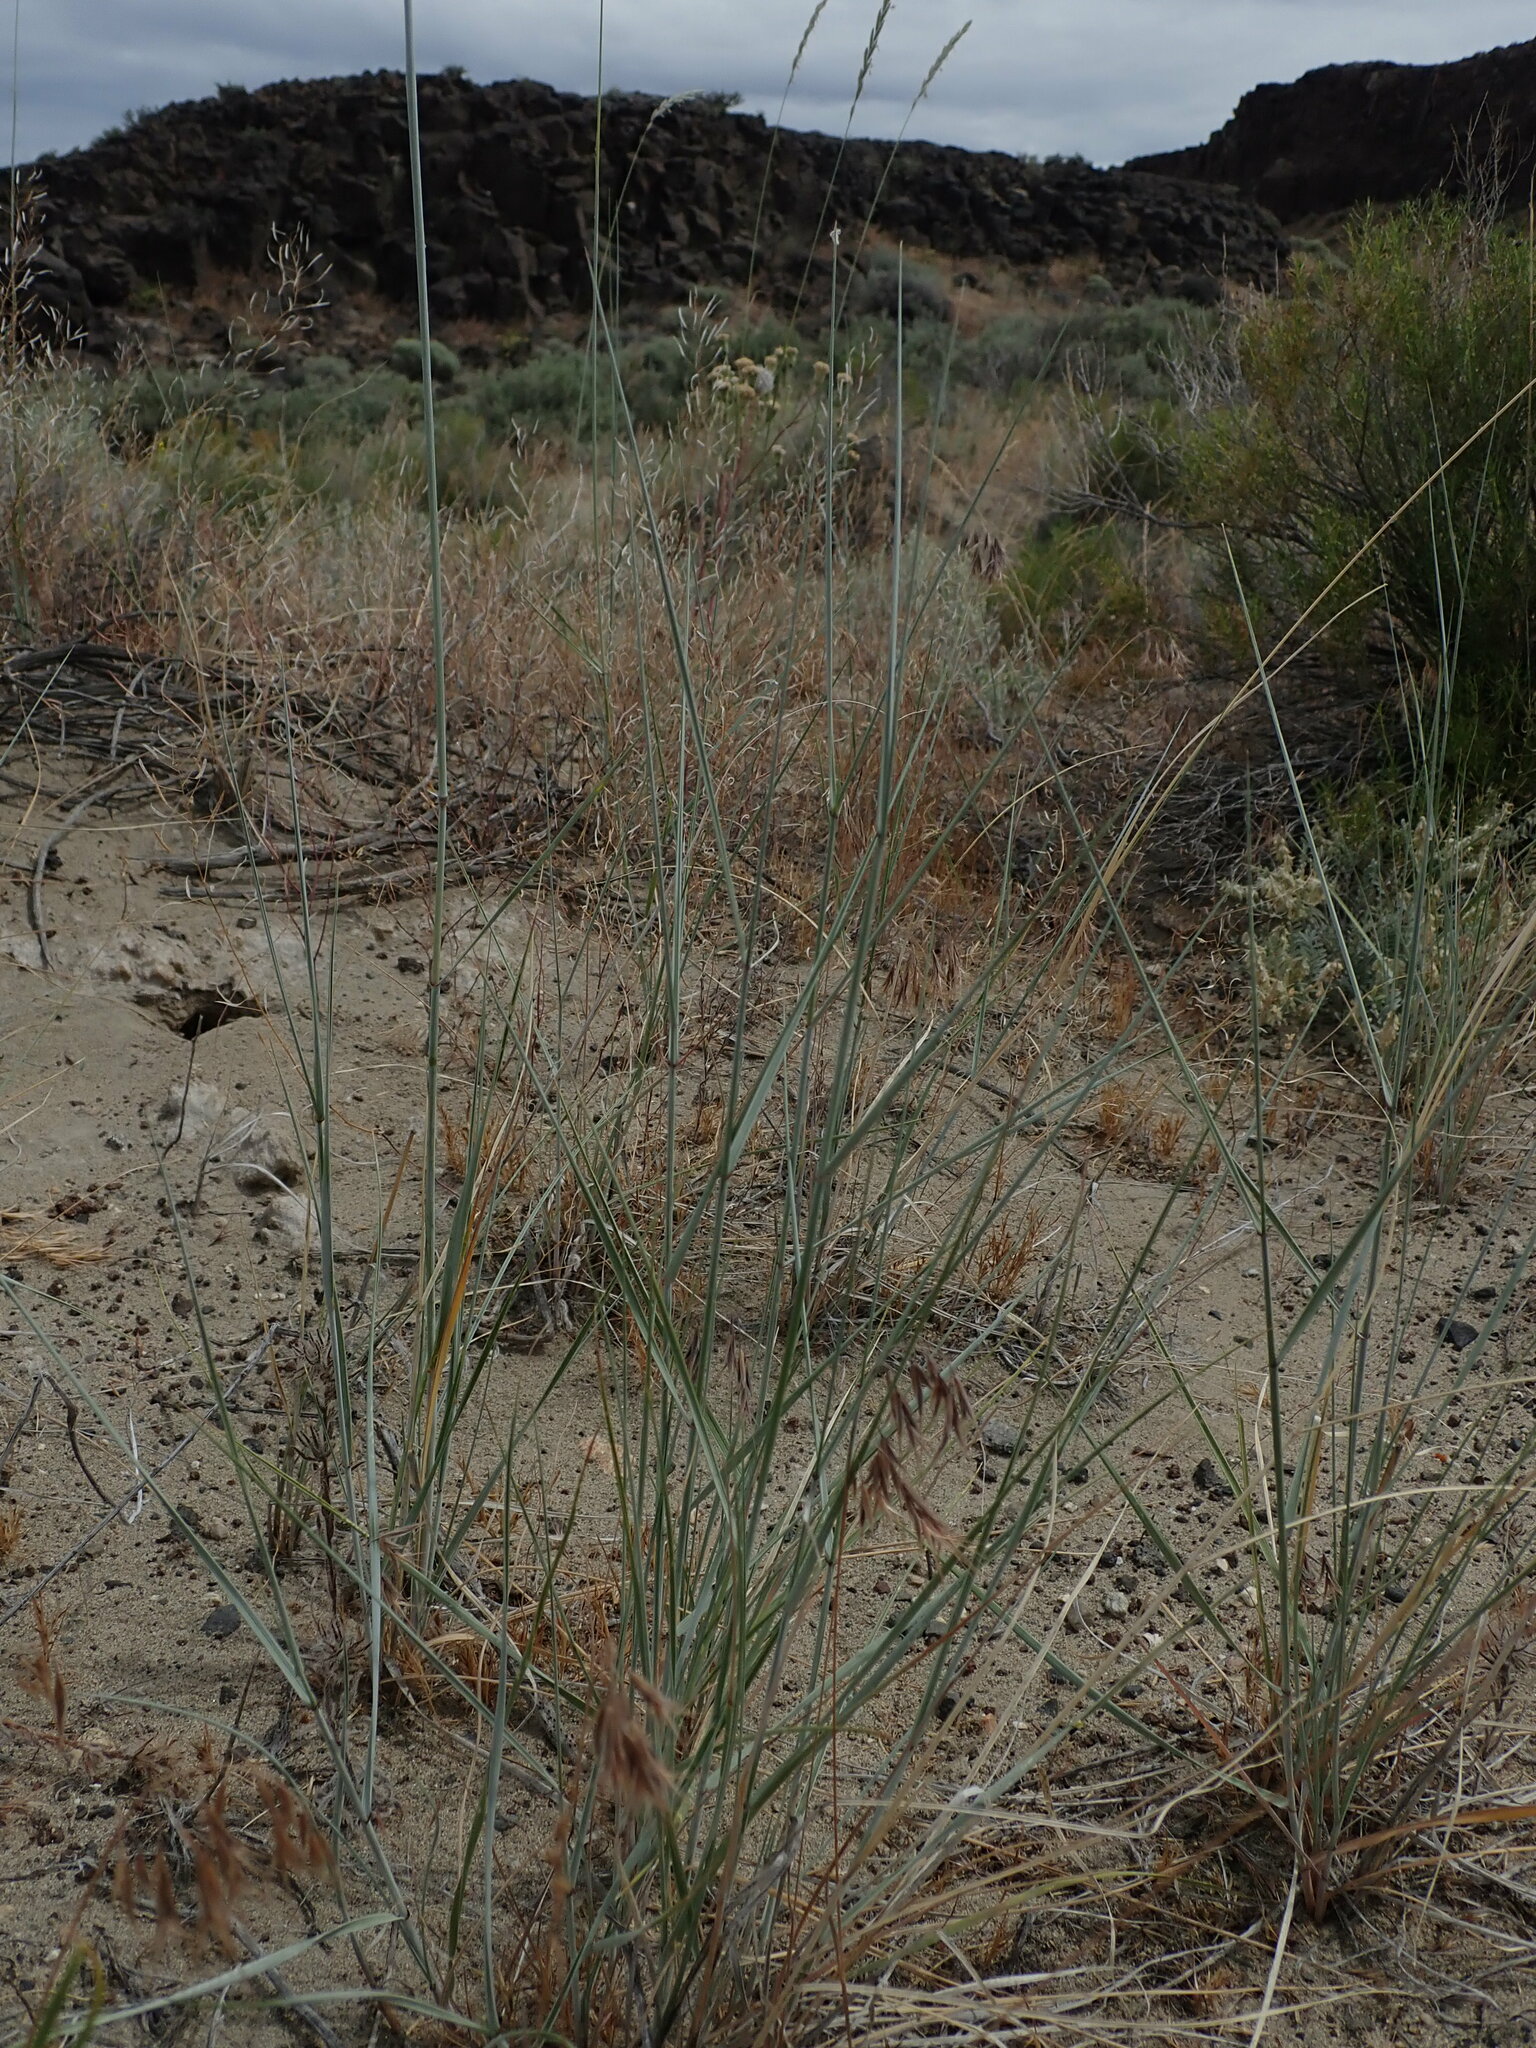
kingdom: Plantae
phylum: Tracheophyta
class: Liliopsida
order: Poales
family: Poaceae
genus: Elymus
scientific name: Elymus lanceolatus
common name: Thick-spike wheatgrass
